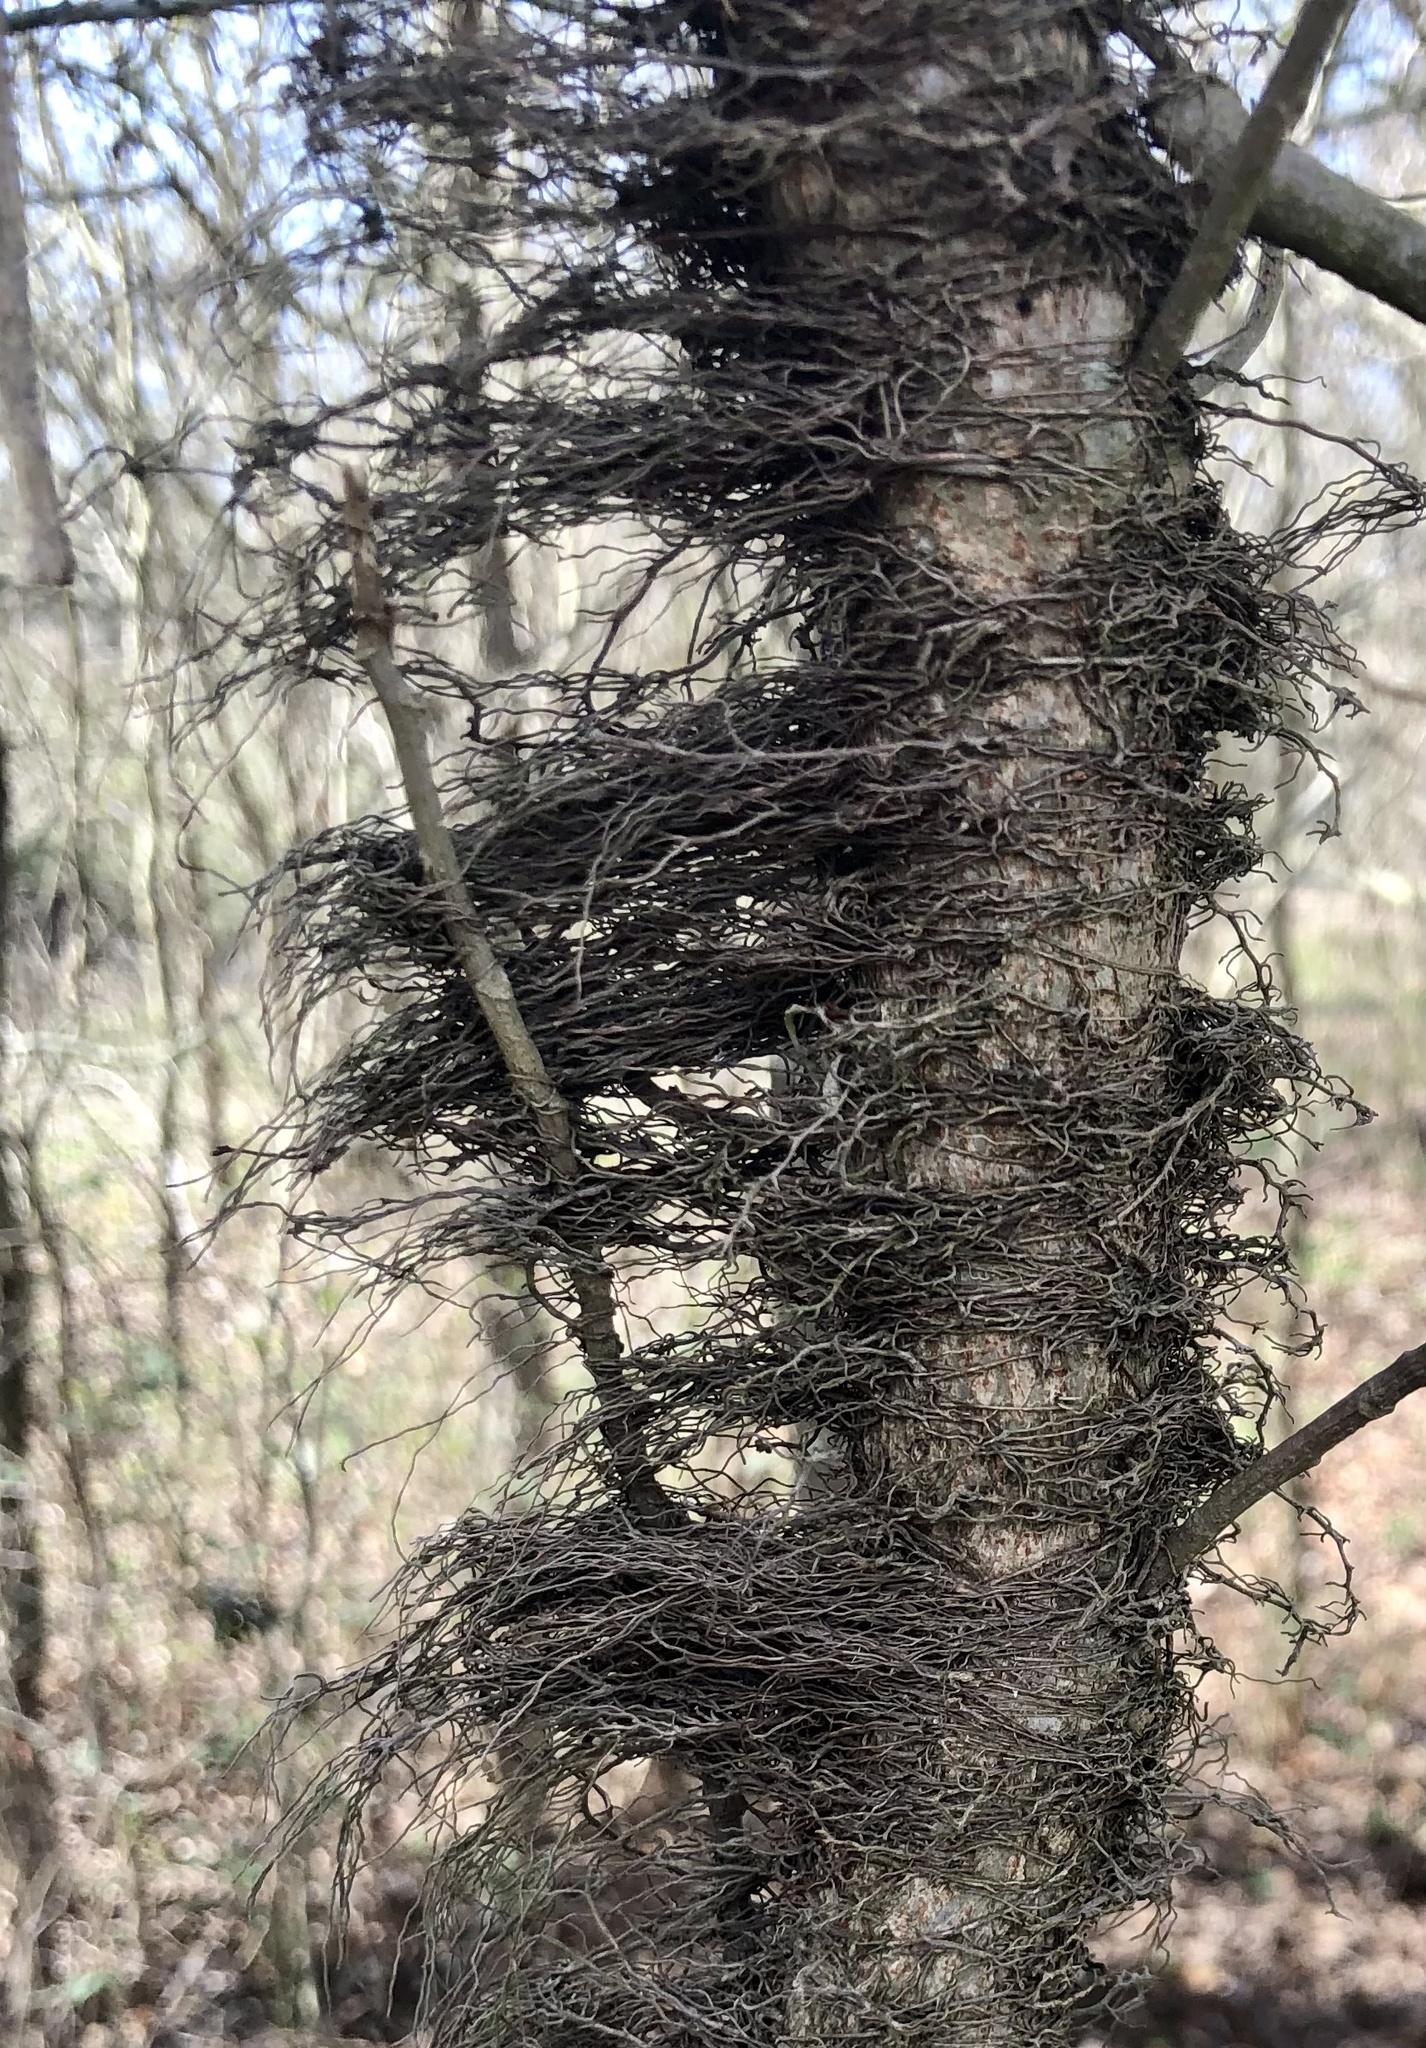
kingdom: Plantae
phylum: Tracheophyta
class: Magnoliopsida
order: Sapindales
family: Anacardiaceae
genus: Toxicodendron
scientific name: Toxicodendron radicans
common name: Poison ivy
